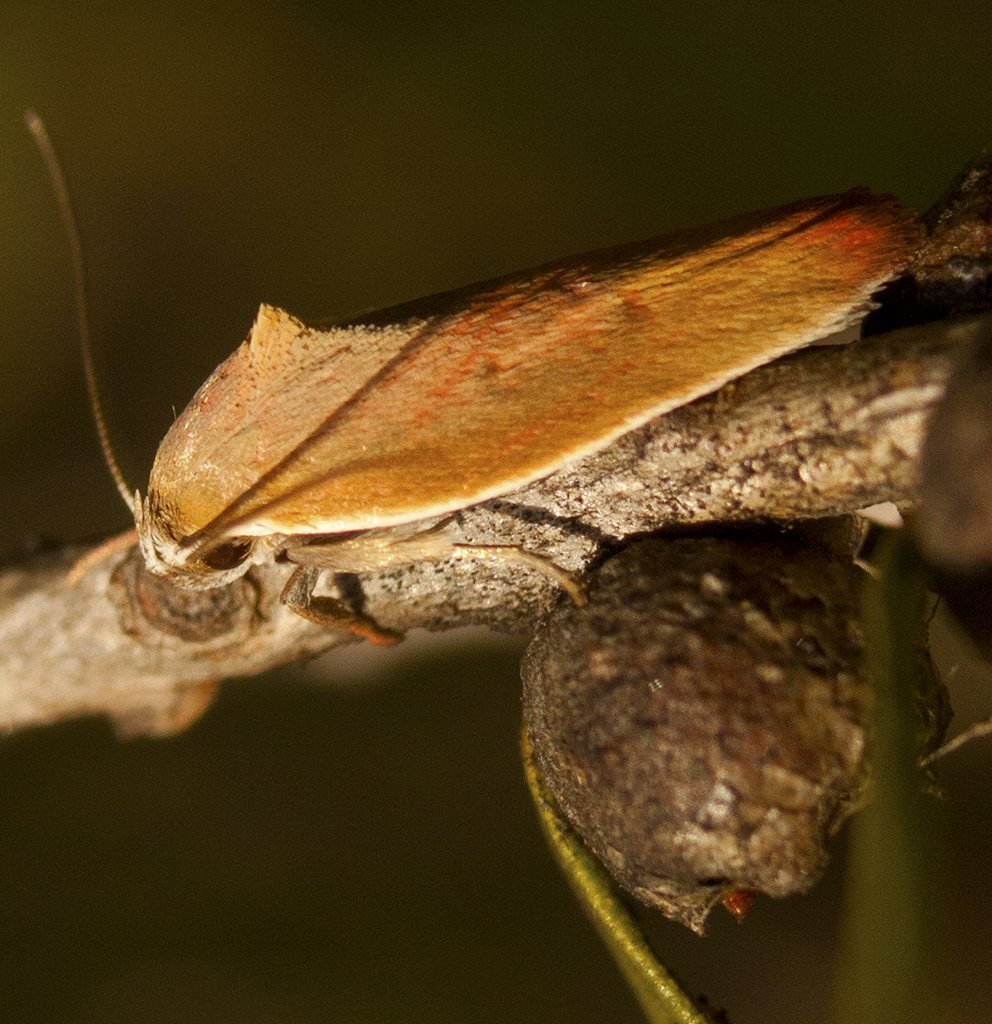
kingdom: Animalia
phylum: Arthropoda
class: Insecta
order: Lepidoptera
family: Oecophoridae
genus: Ptyoptila
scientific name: Ptyoptila matutinella
